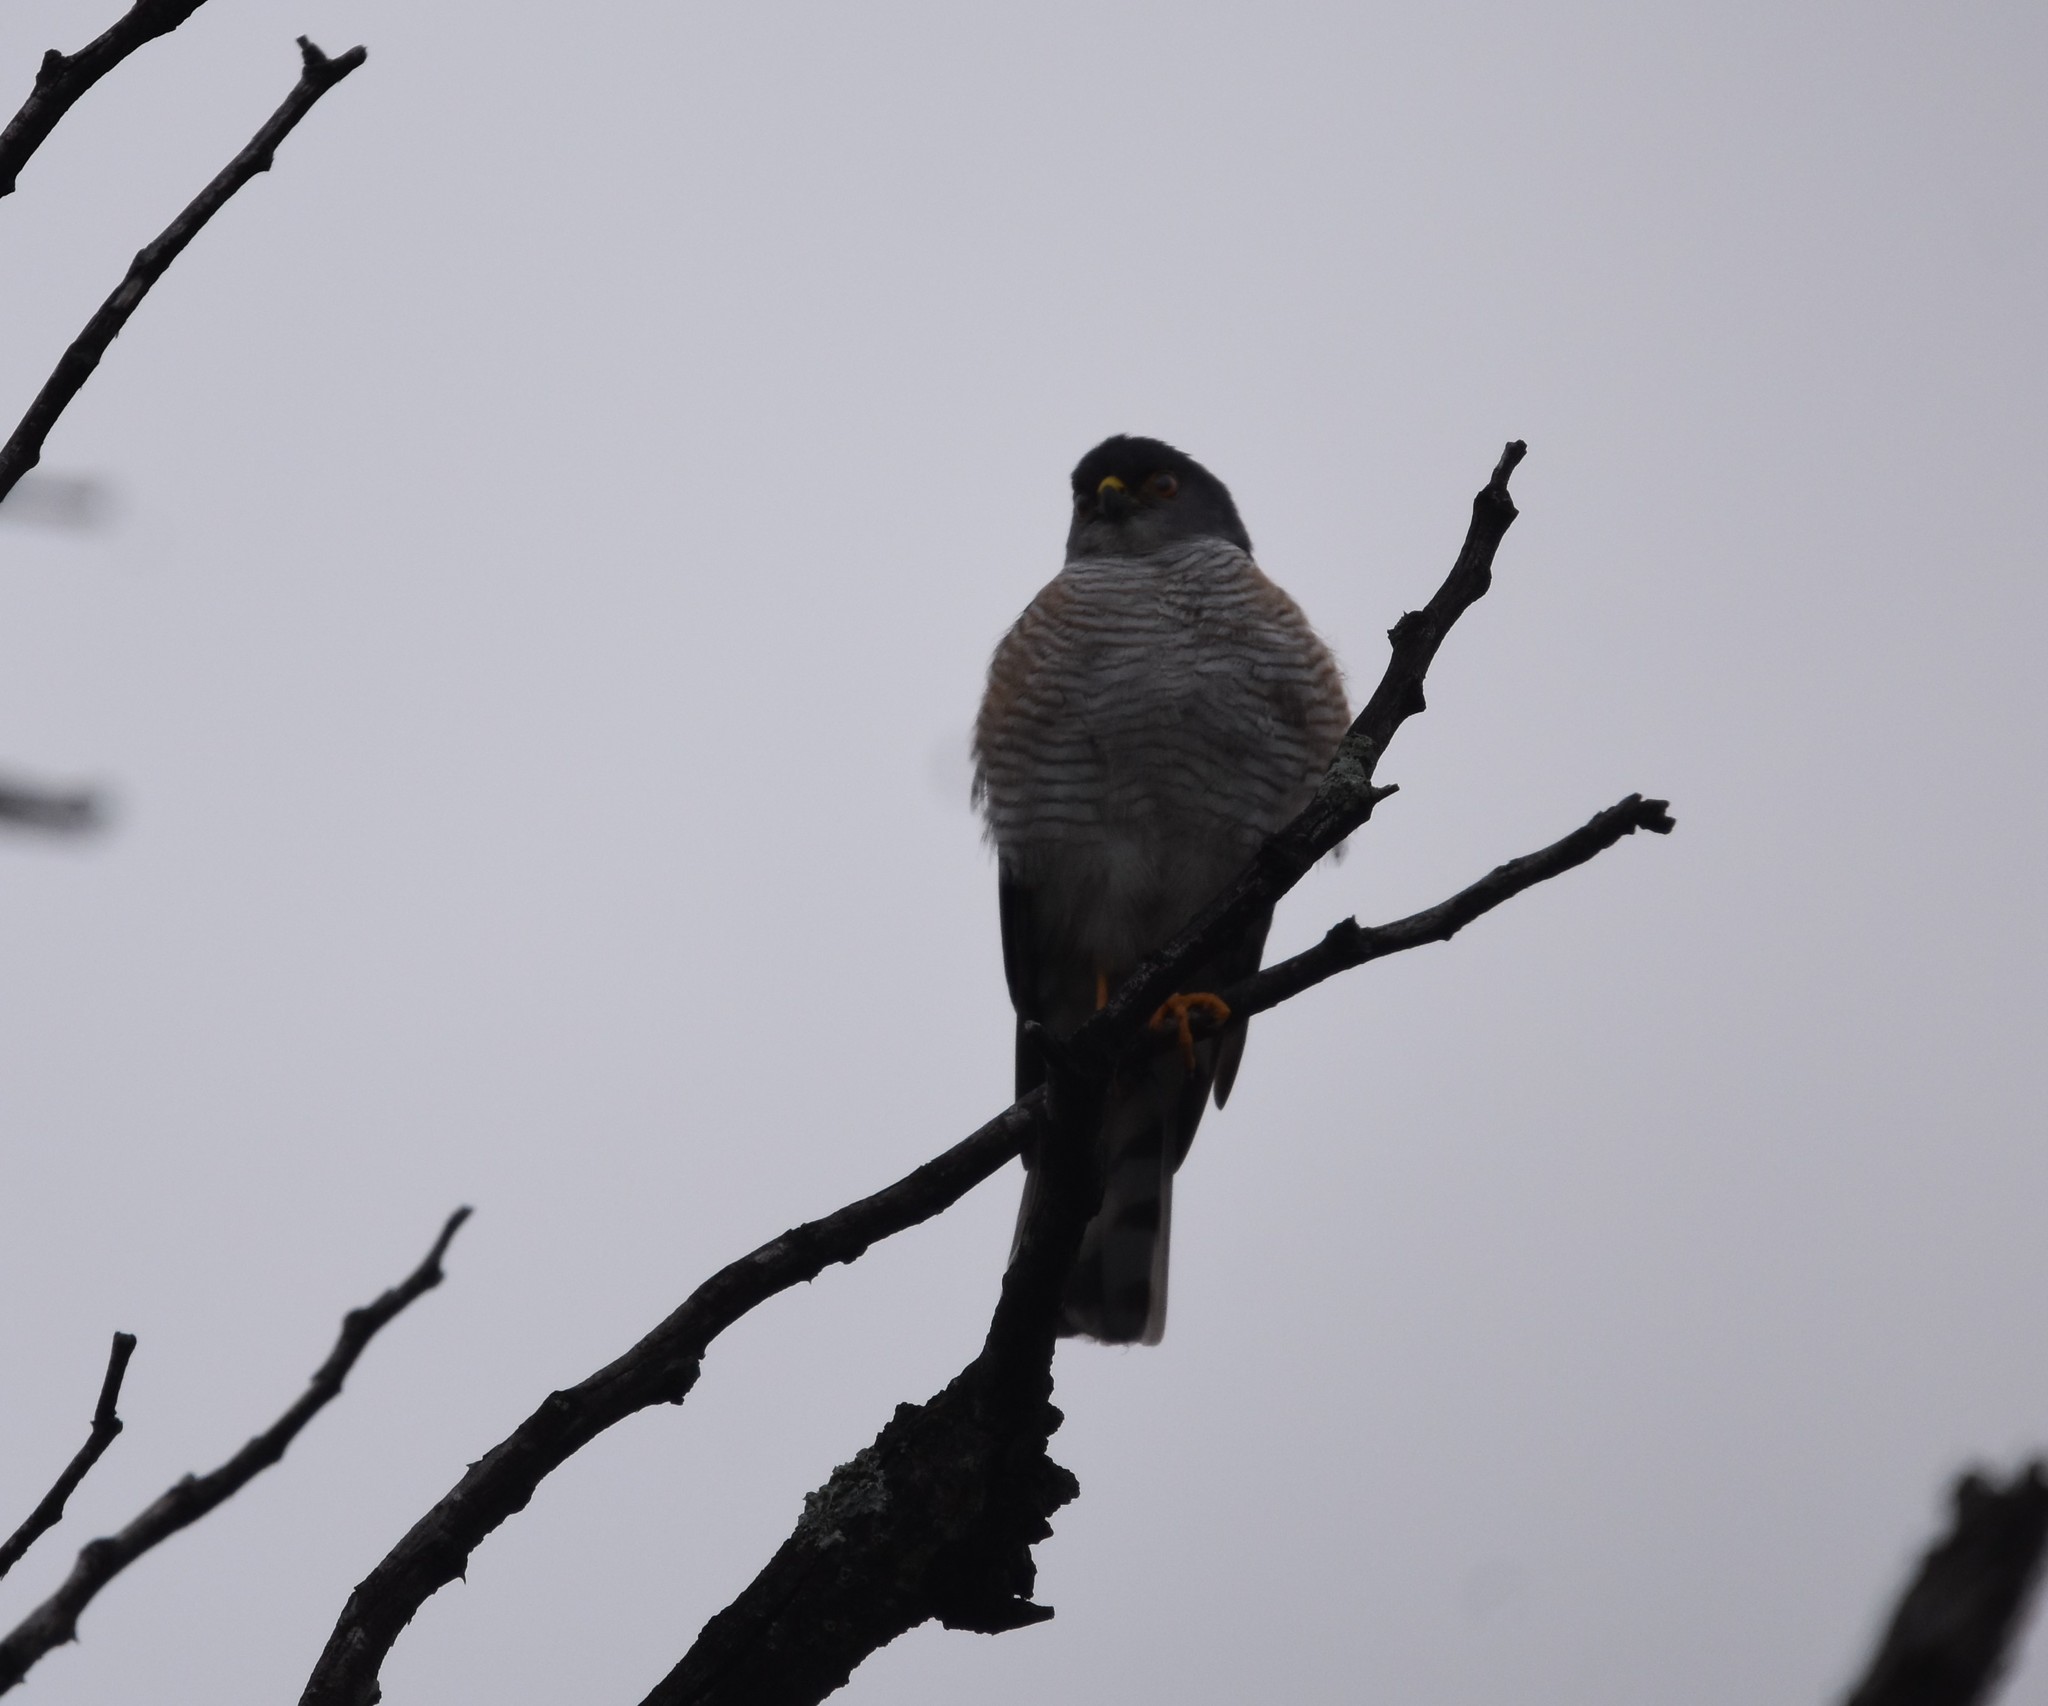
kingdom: Animalia
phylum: Chordata
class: Aves
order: Accipitriformes
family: Accipitridae
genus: Accipiter
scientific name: Accipiter minullus
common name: Little sparrowhawk
